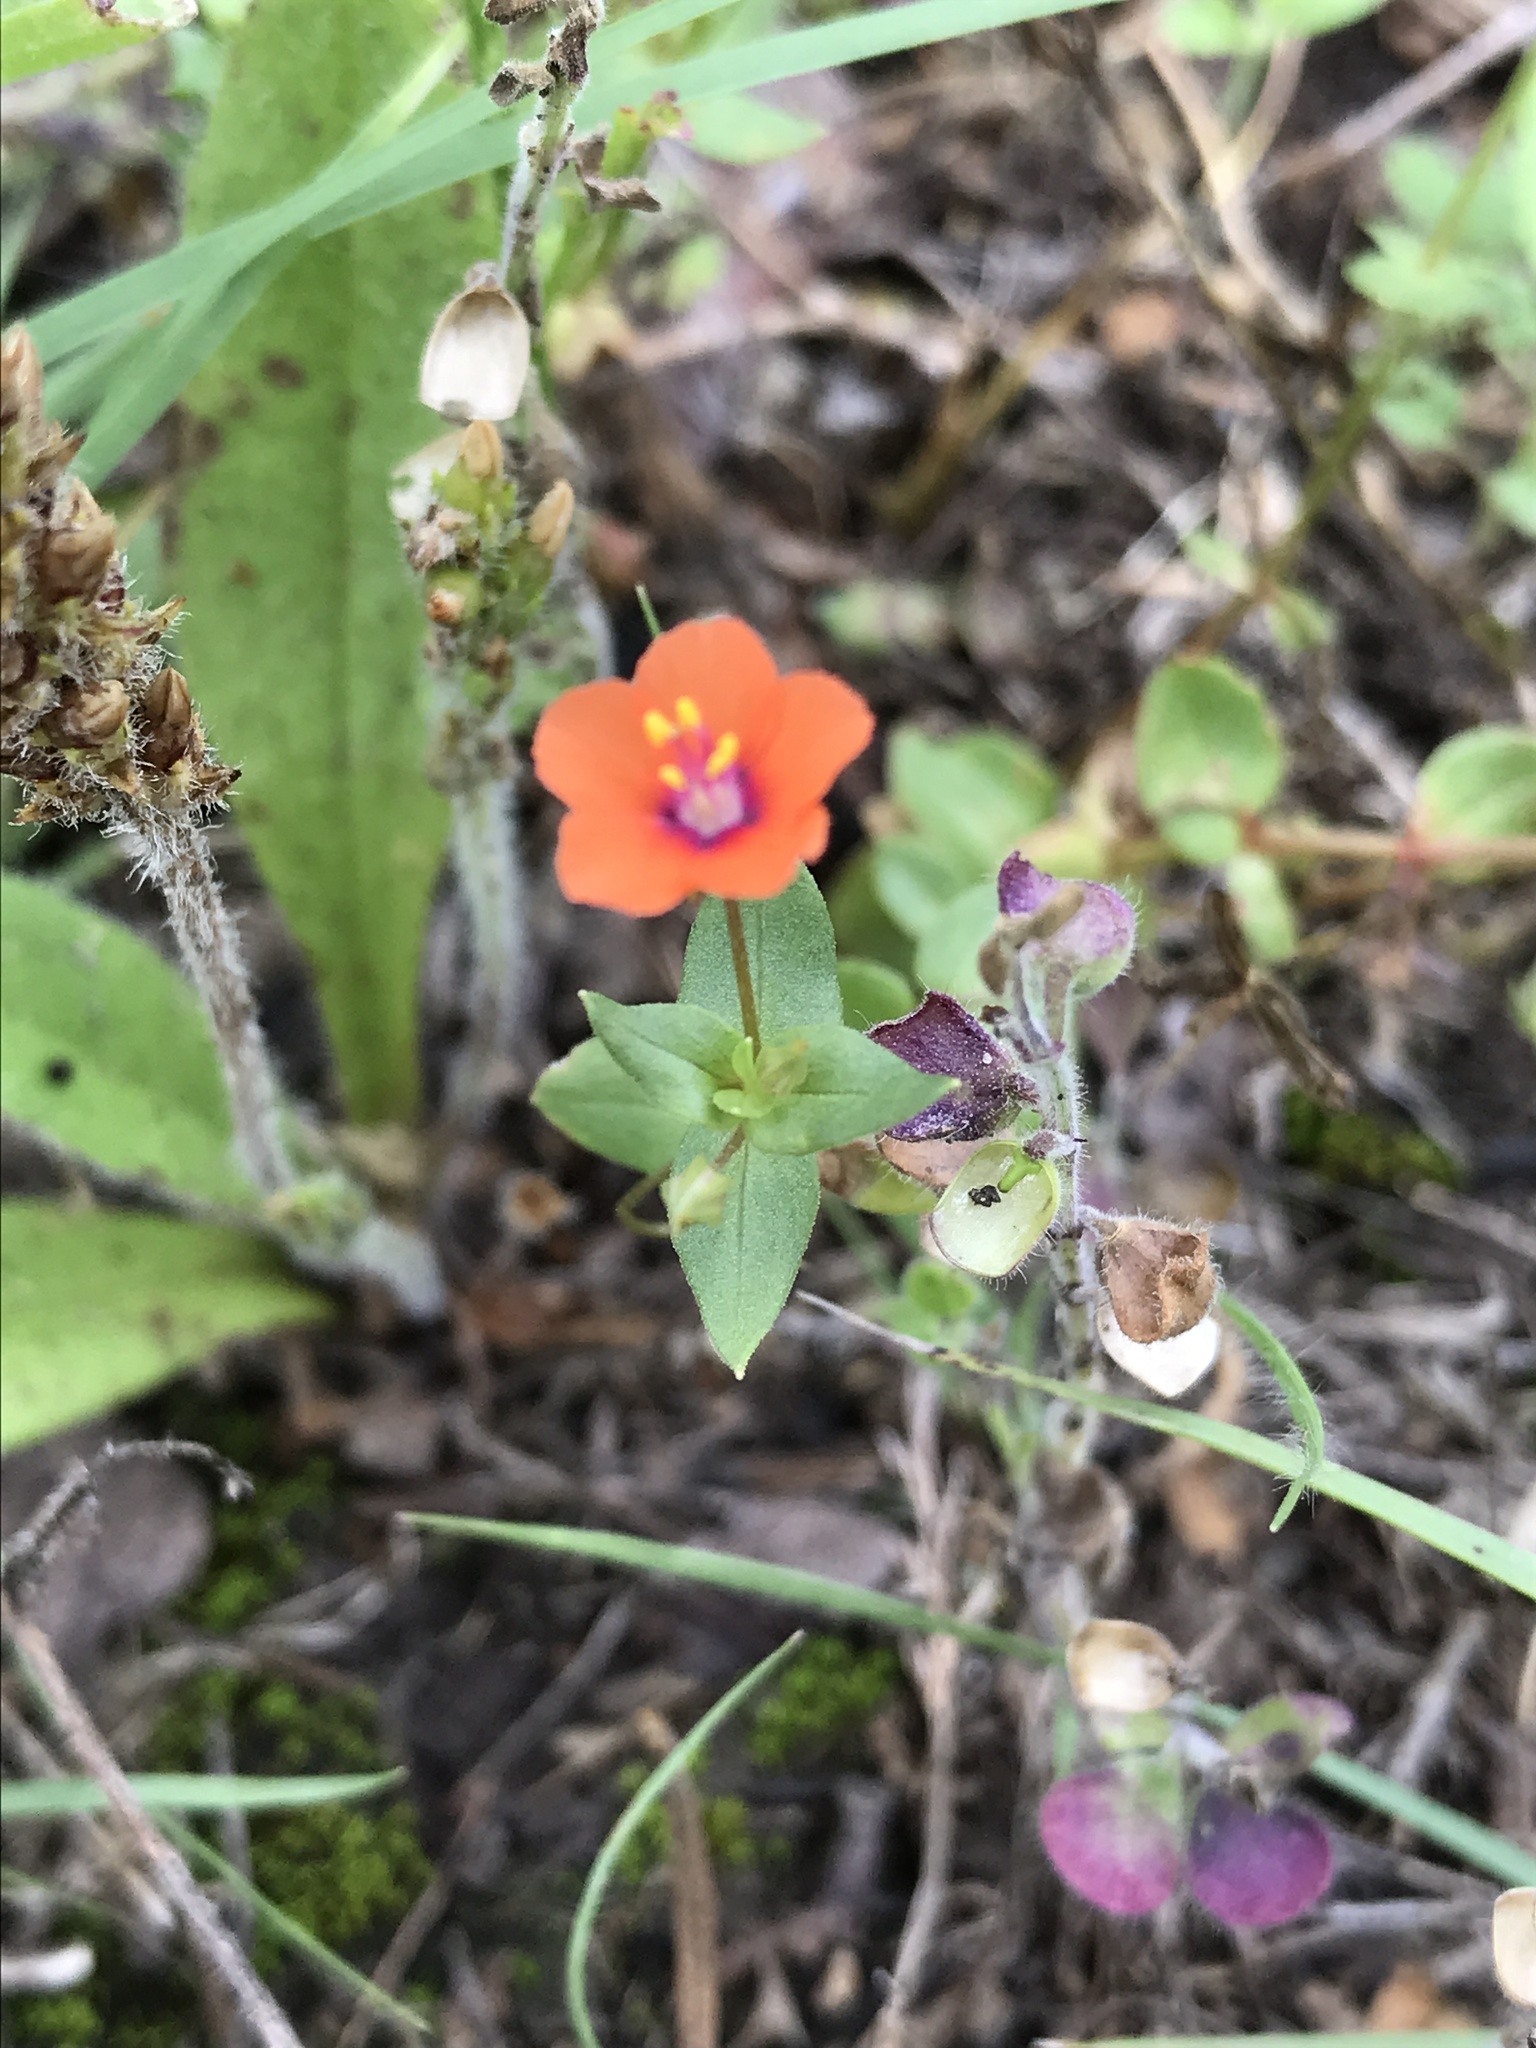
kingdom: Plantae
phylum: Tracheophyta
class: Magnoliopsida
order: Ericales
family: Primulaceae
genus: Lysimachia
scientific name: Lysimachia arvensis
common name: Scarlet pimpernel
